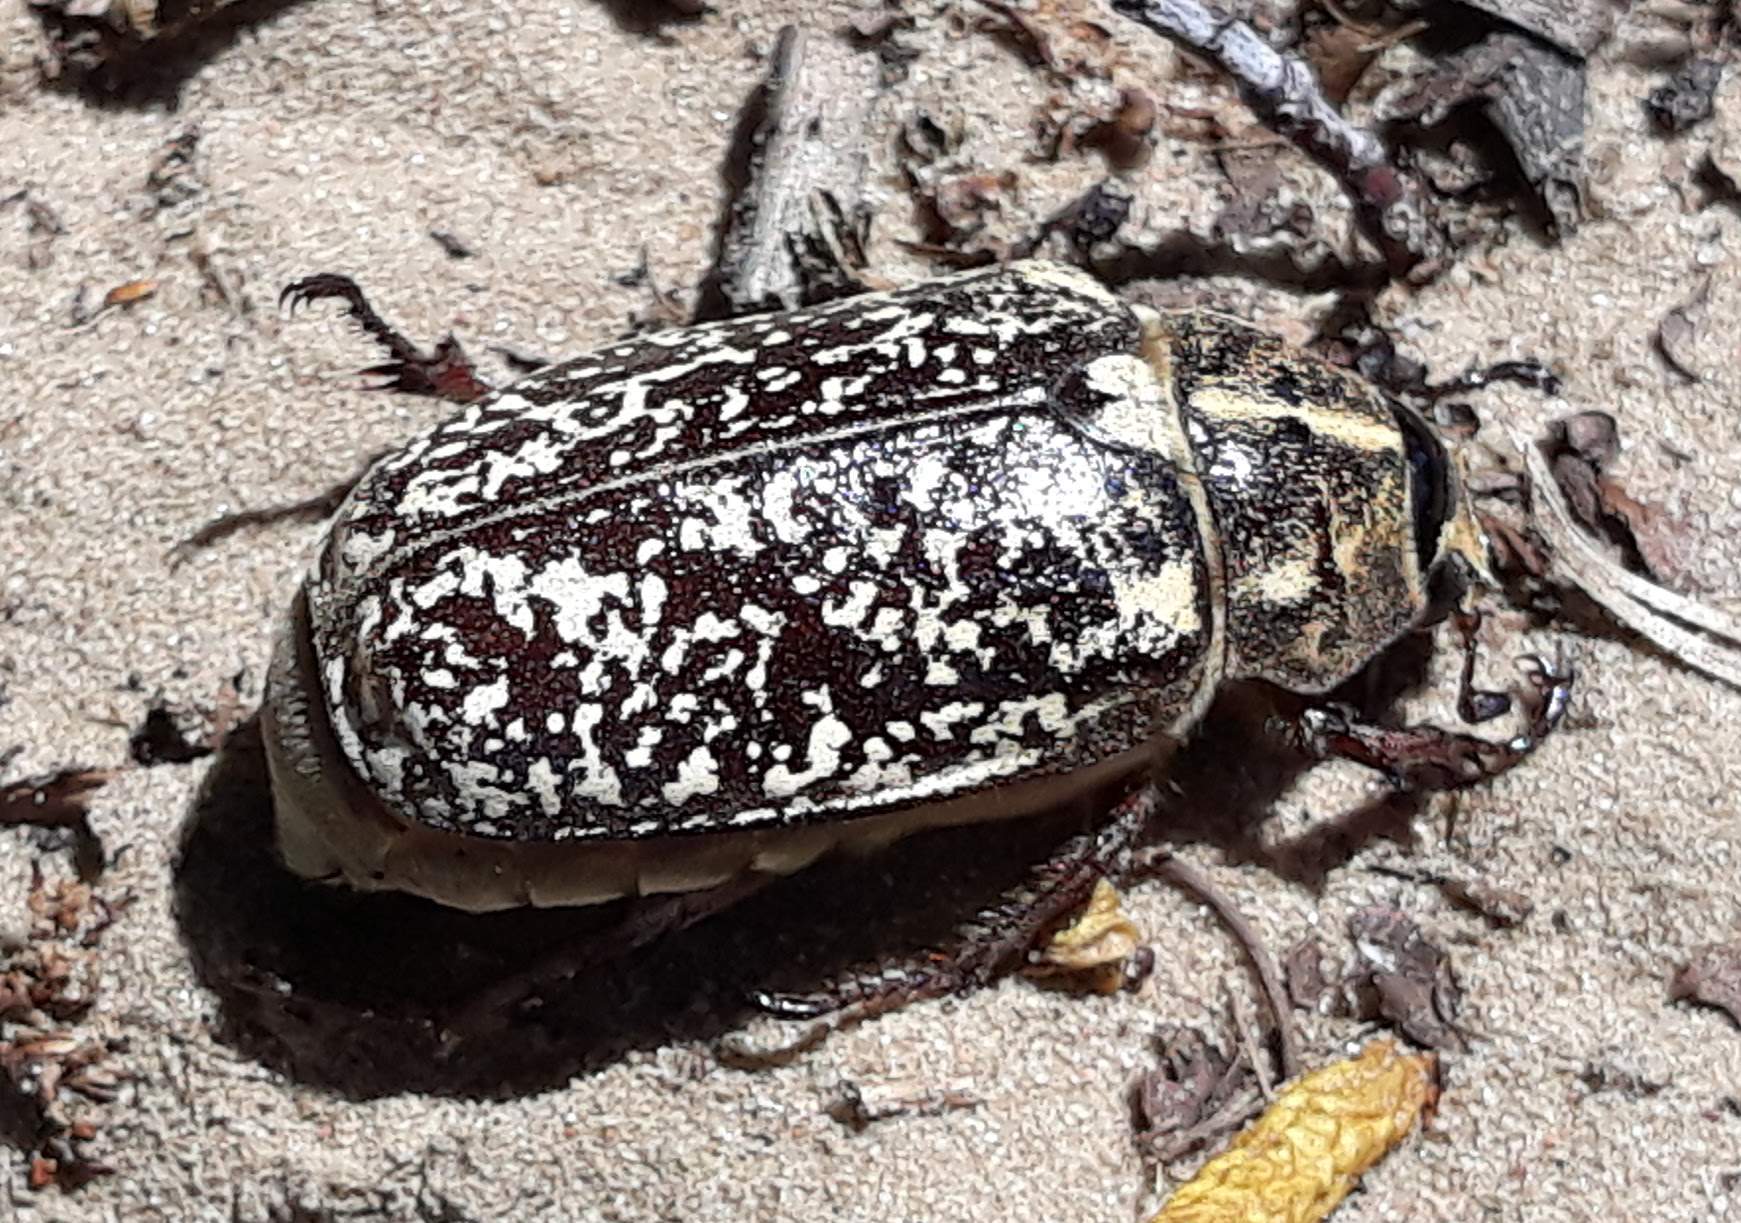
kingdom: Animalia
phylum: Arthropoda
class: Insecta
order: Coleoptera
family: Scarabaeidae
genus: Polyphylla
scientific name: Polyphylla fullo
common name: Pine chafer
